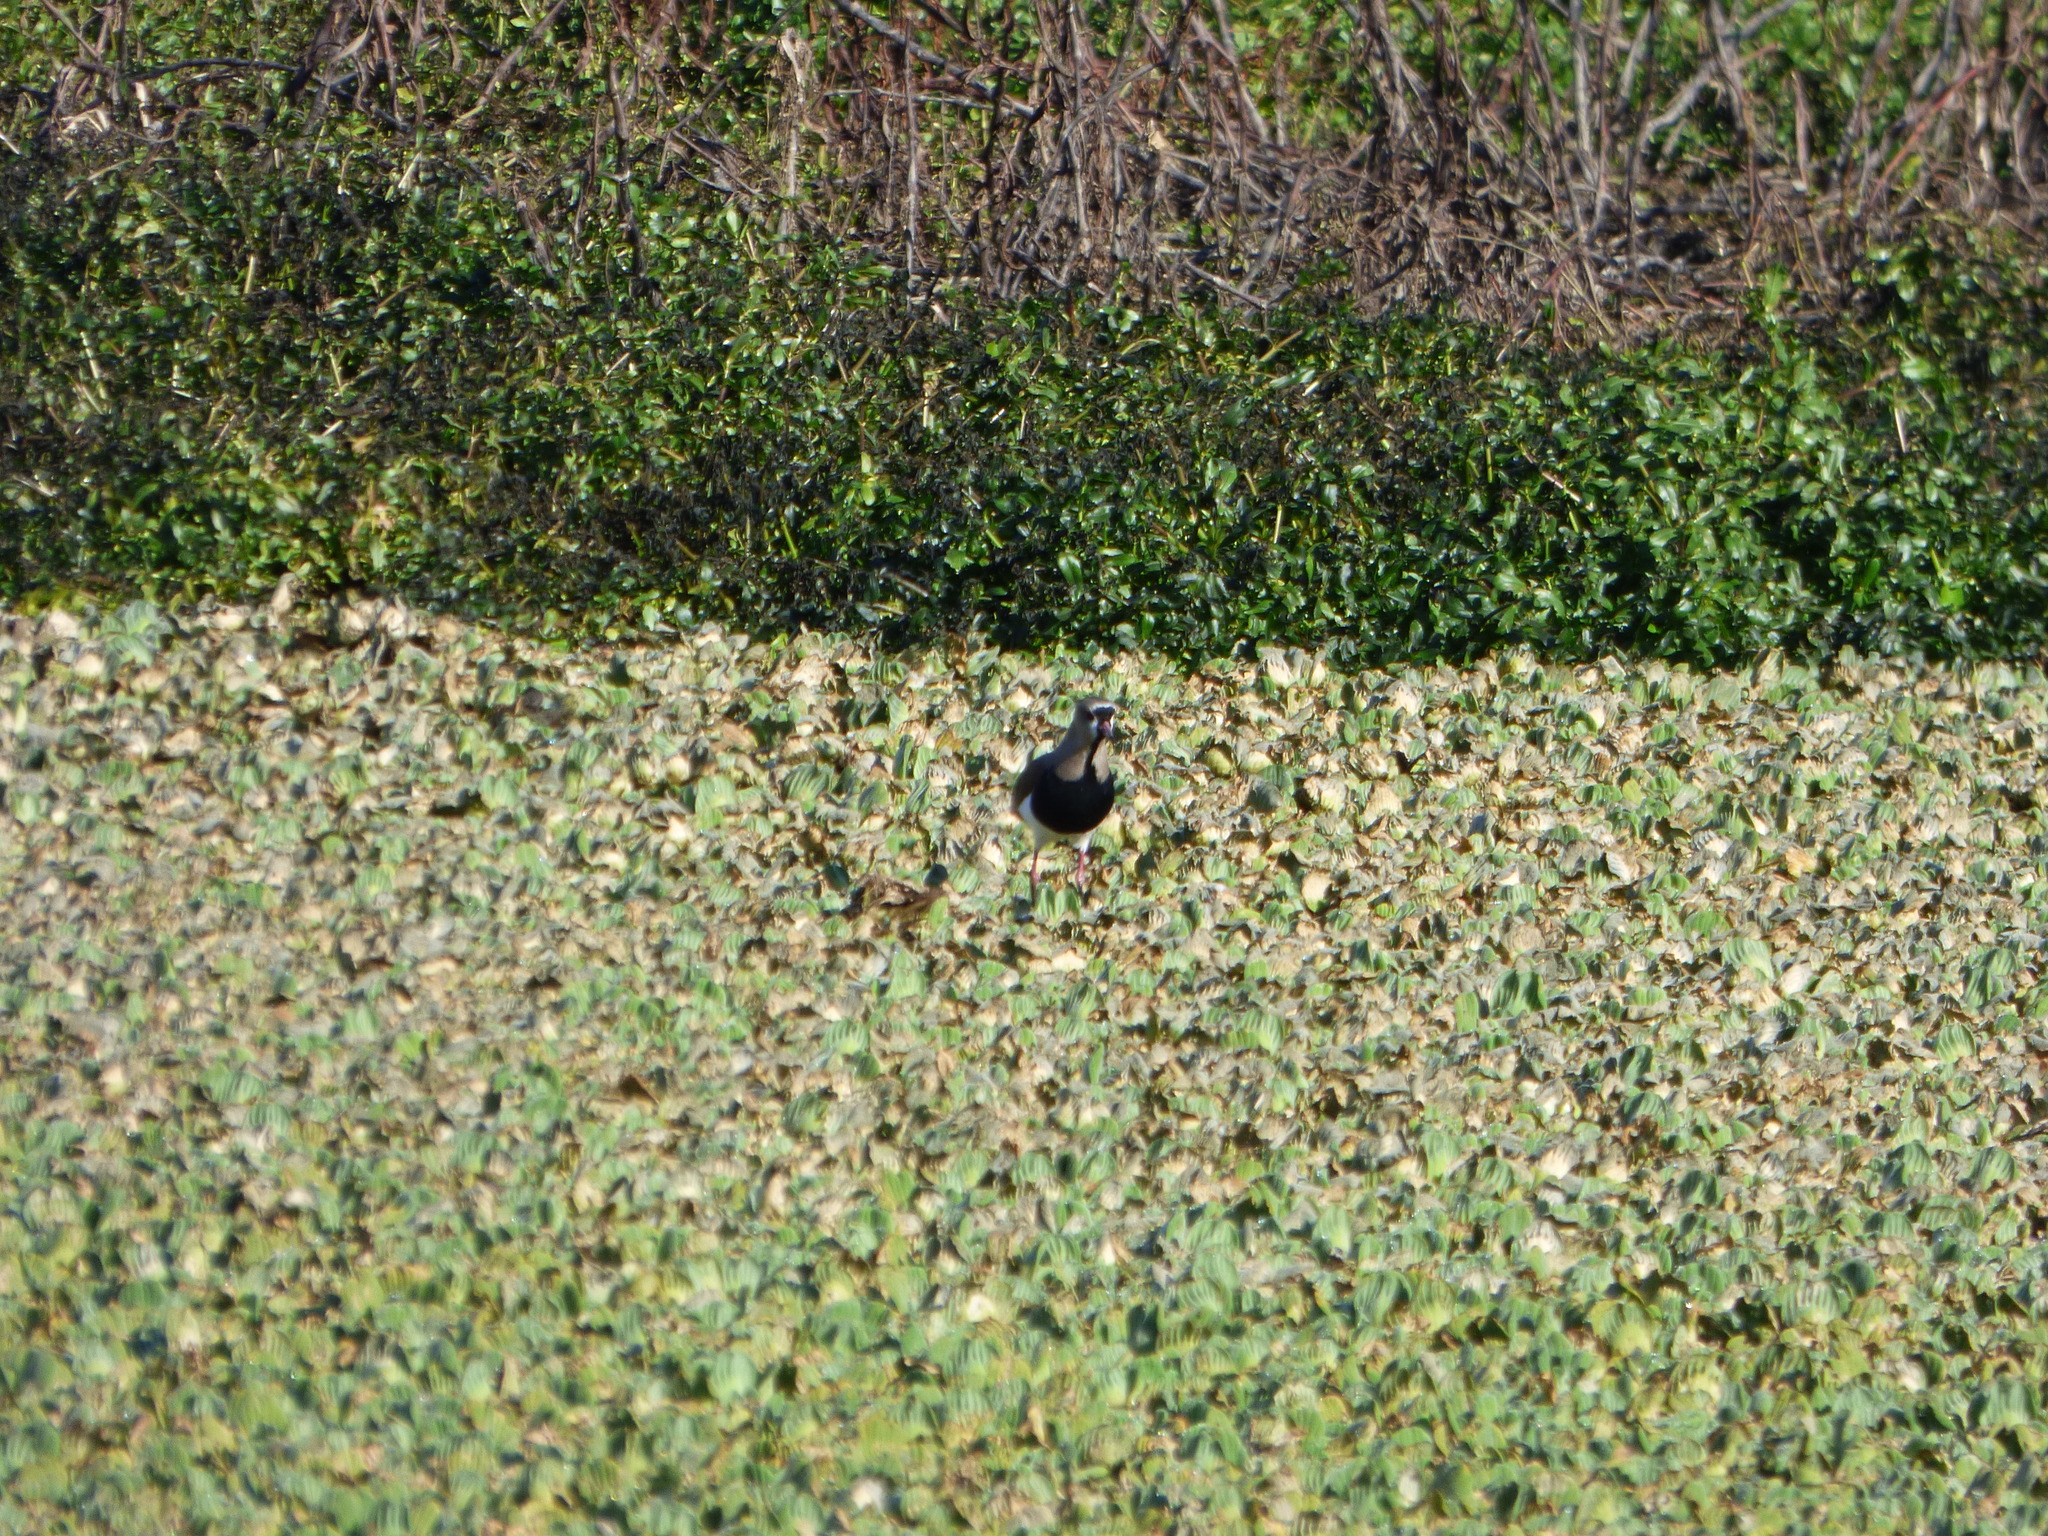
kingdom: Animalia
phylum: Chordata
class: Aves
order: Charadriiformes
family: Charadriidae
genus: Vanellus
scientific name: Vanellus chilensis
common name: Southern lapwing
